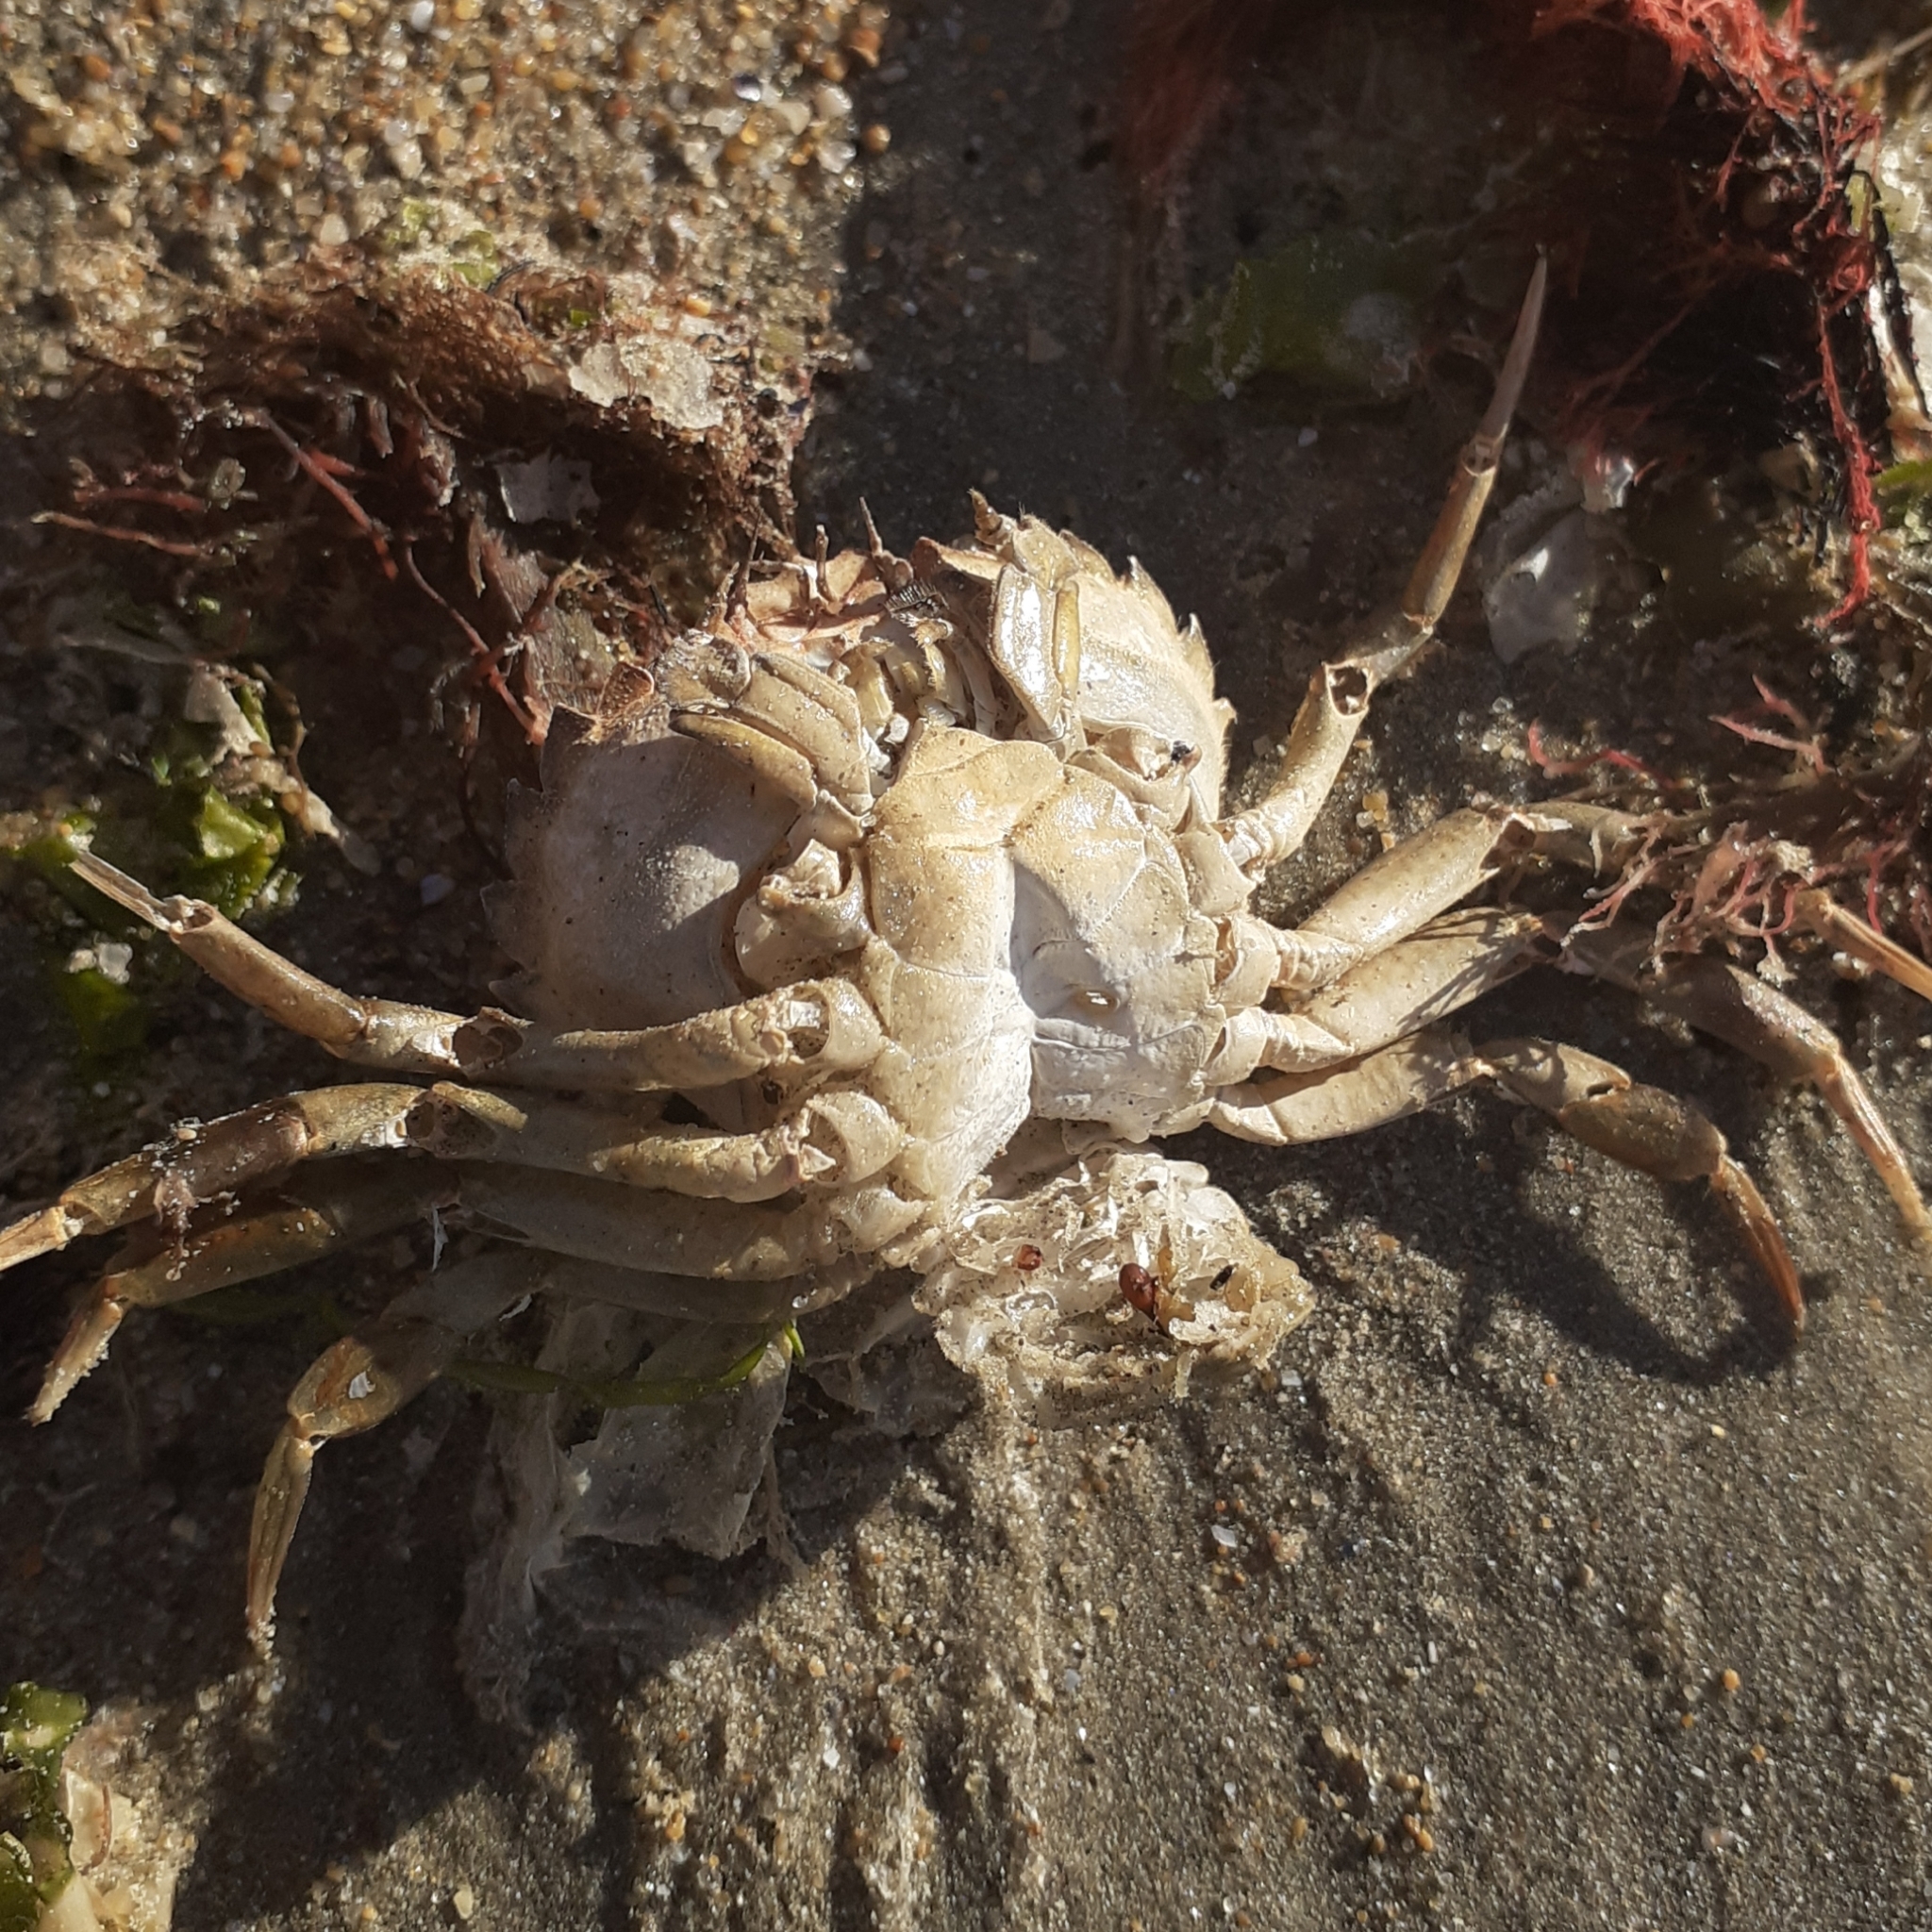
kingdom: Animalia
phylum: Arthropoda
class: Malacostraca
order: Decapoda
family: Carcinidae
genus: Carcinus
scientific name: Carcinus maenas
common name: European green crab
